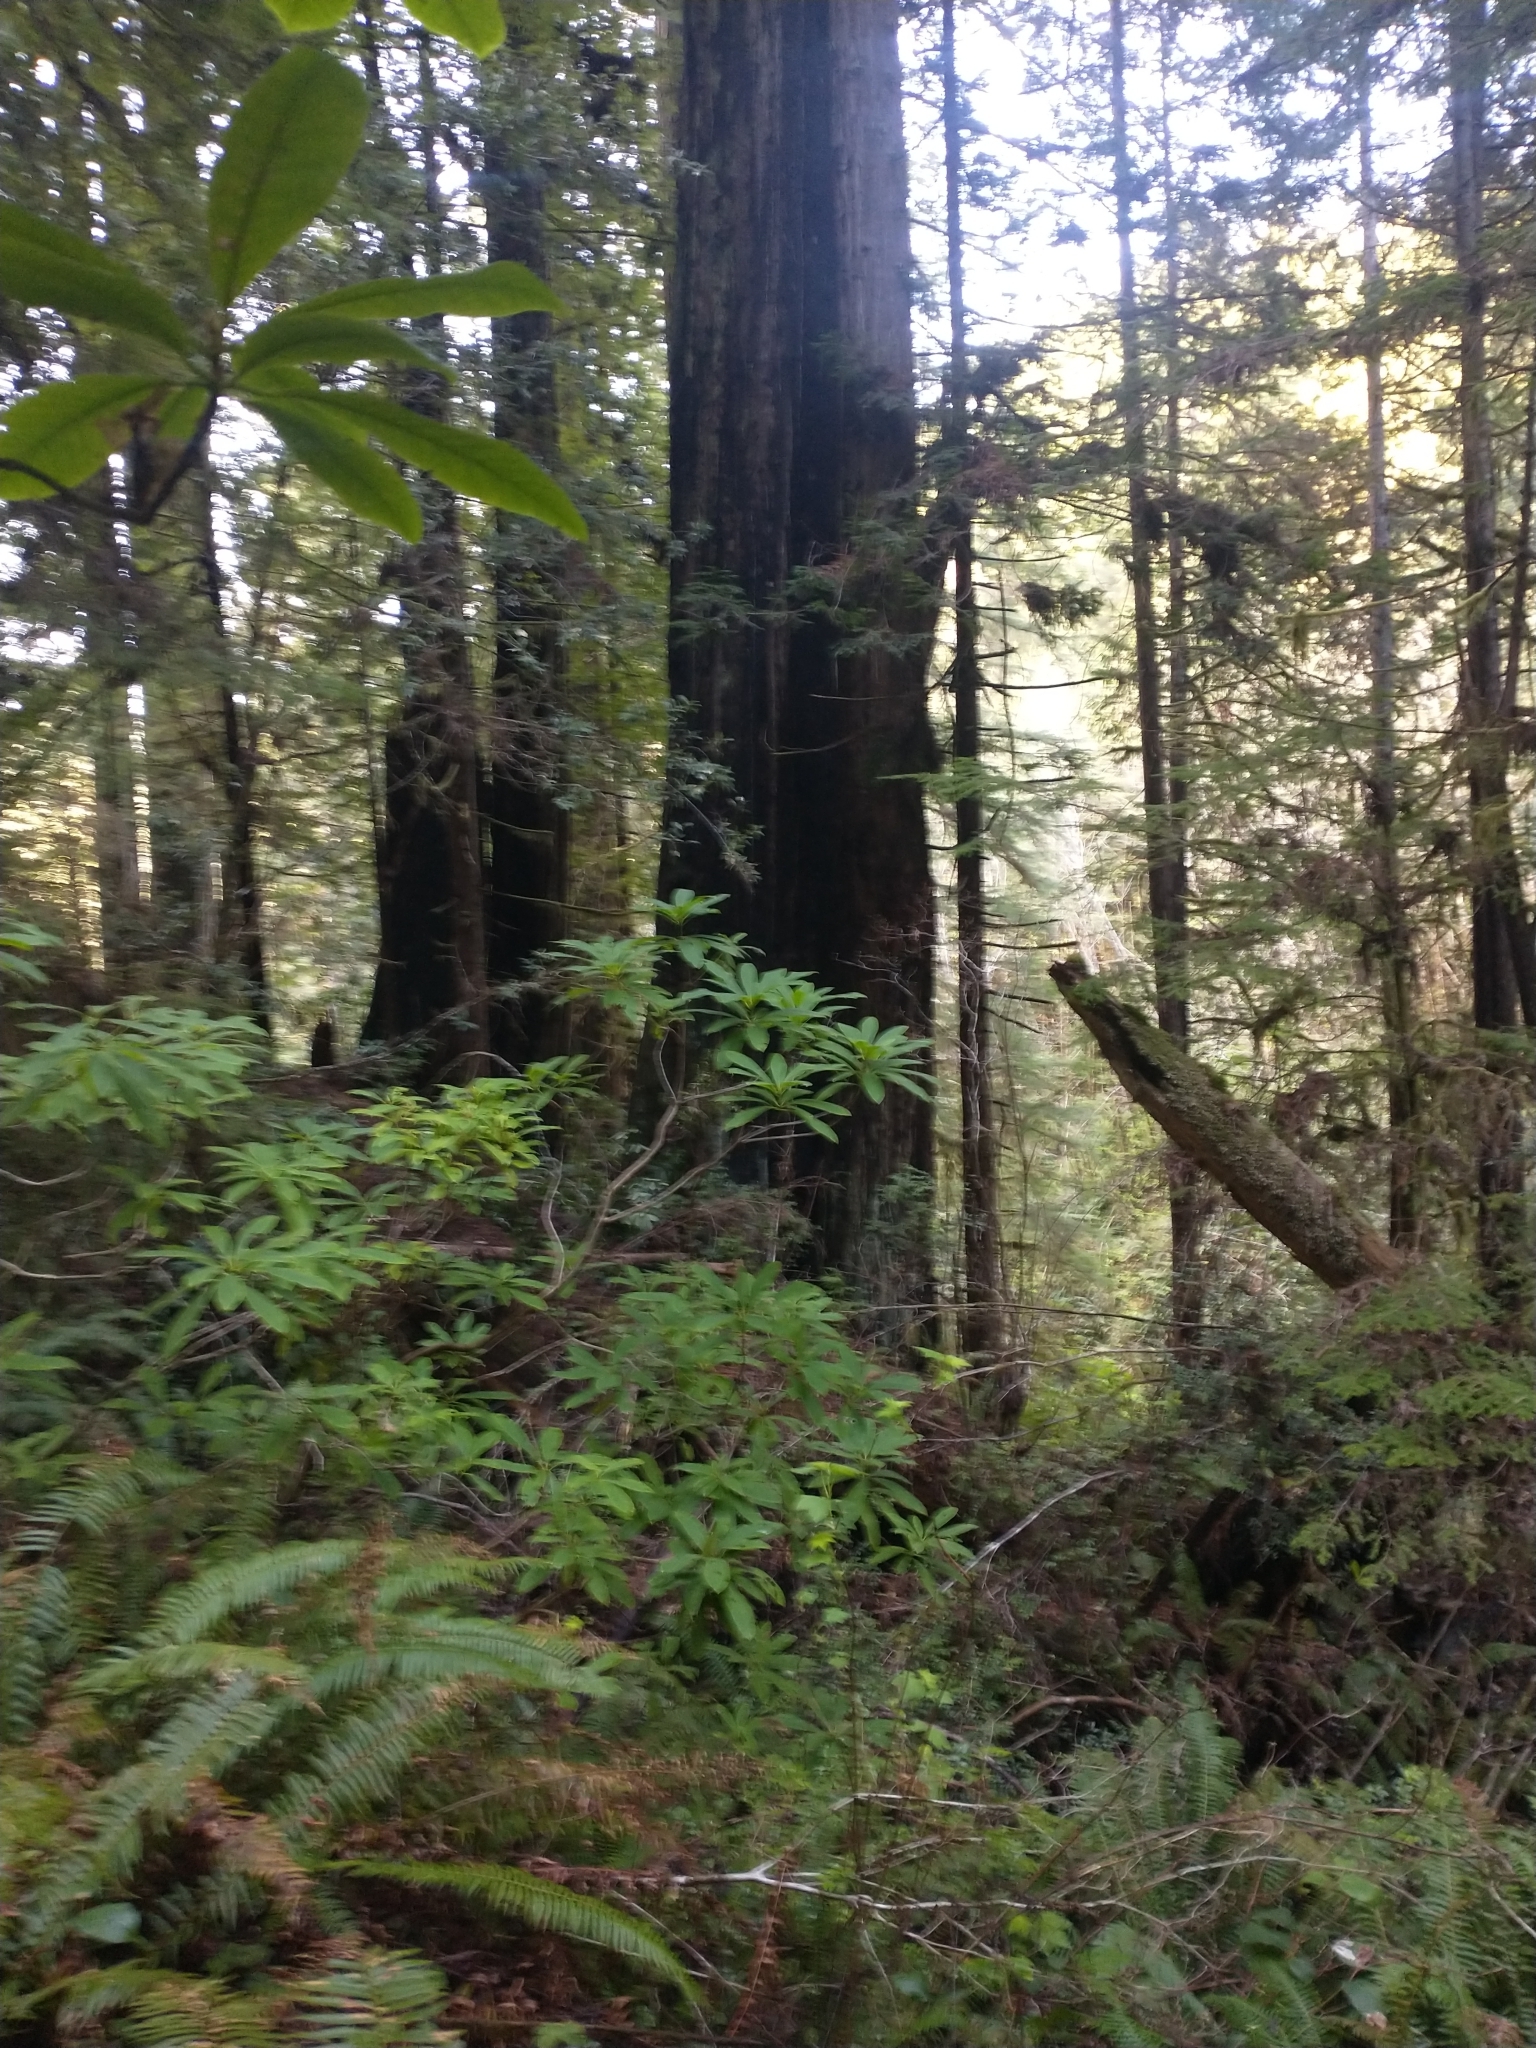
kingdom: Plantae
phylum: Tracheophyta
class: Magnoliopsida
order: Ericales
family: Ericaceae
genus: Rhododendron
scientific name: Rhododendron macrophyllum
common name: California rose bay
